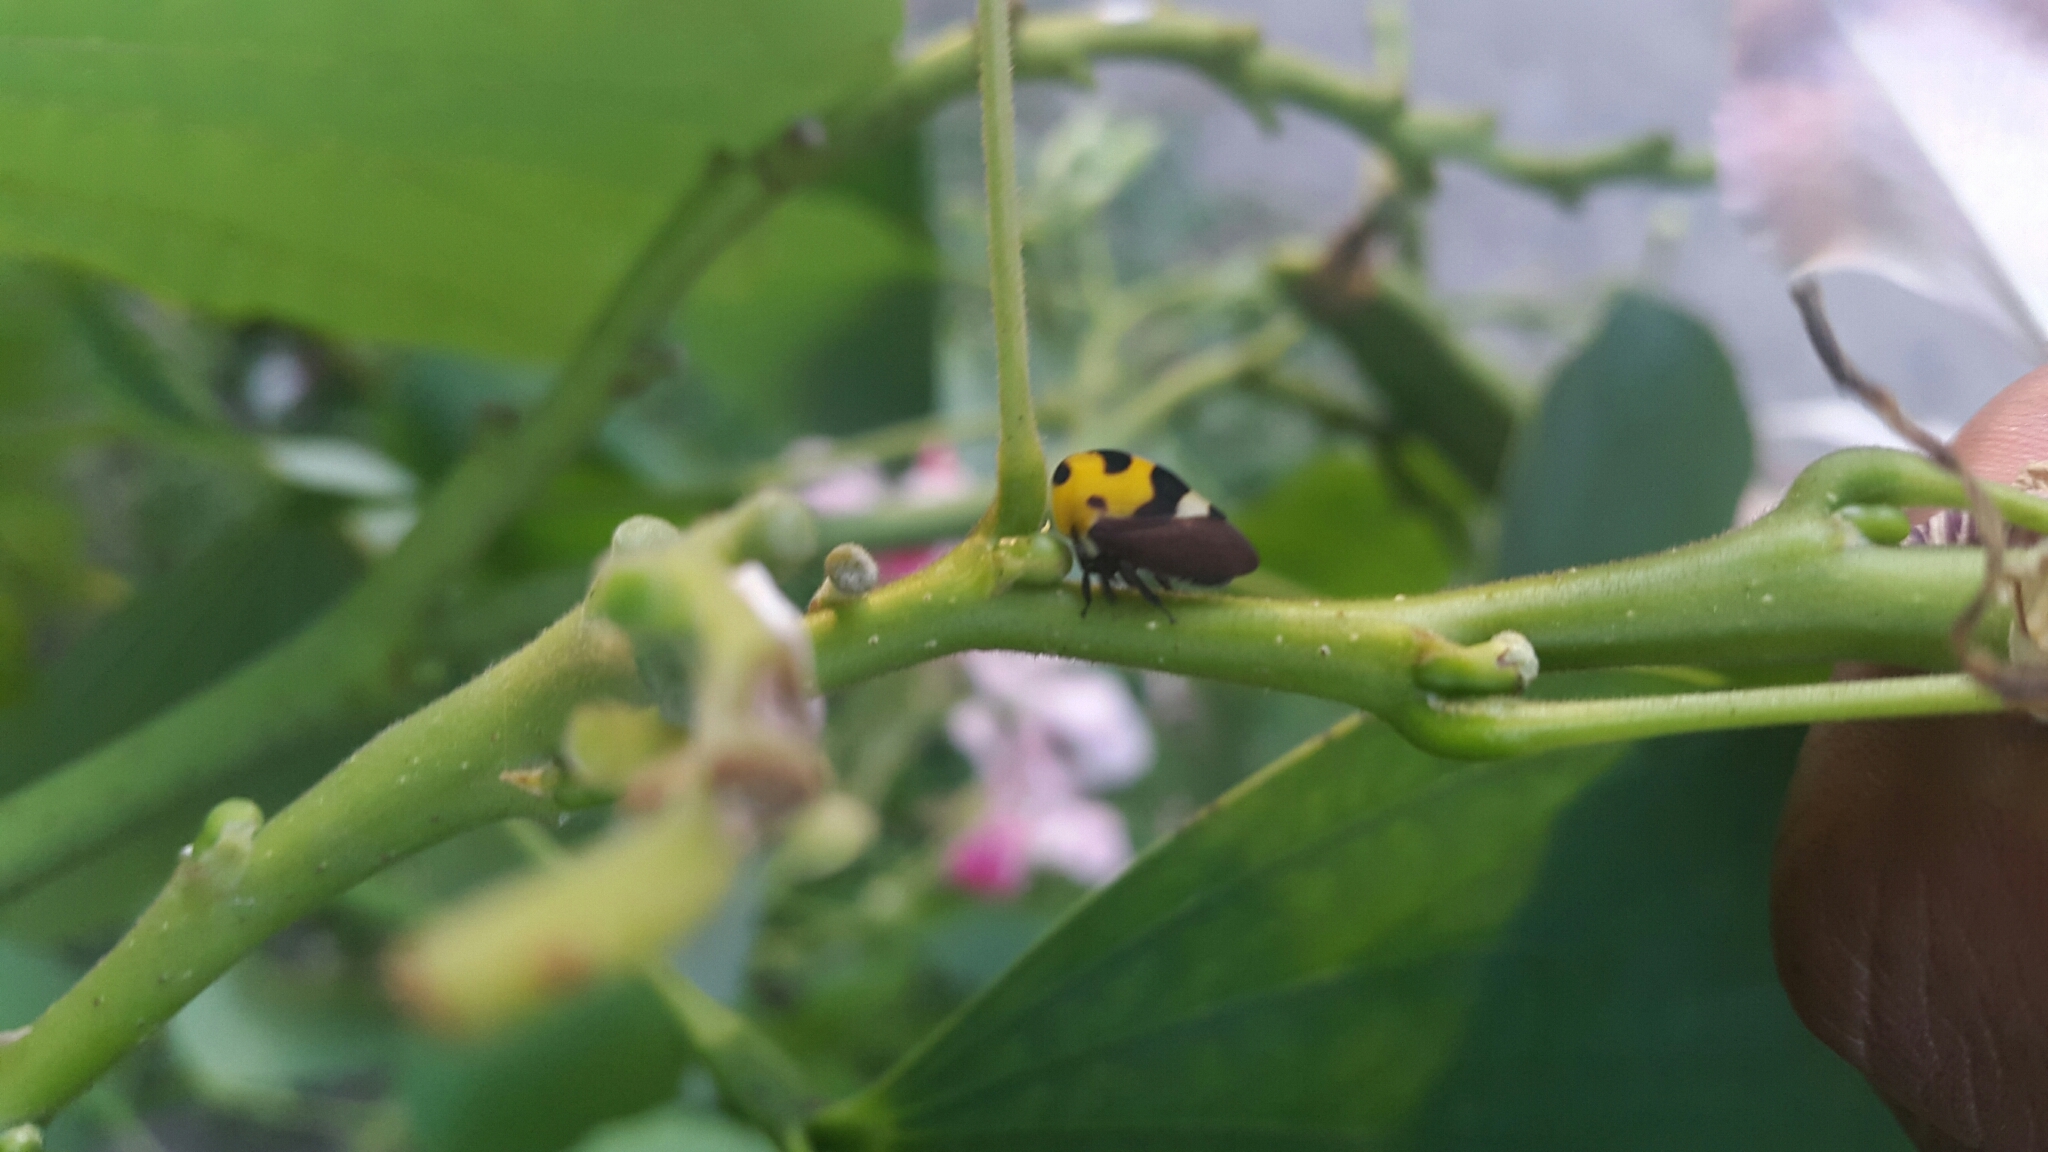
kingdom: Animalia
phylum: Arthropoda
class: Insecta
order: Hemiptera
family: Membracidae
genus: Membracis
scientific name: Membracis mexicana
